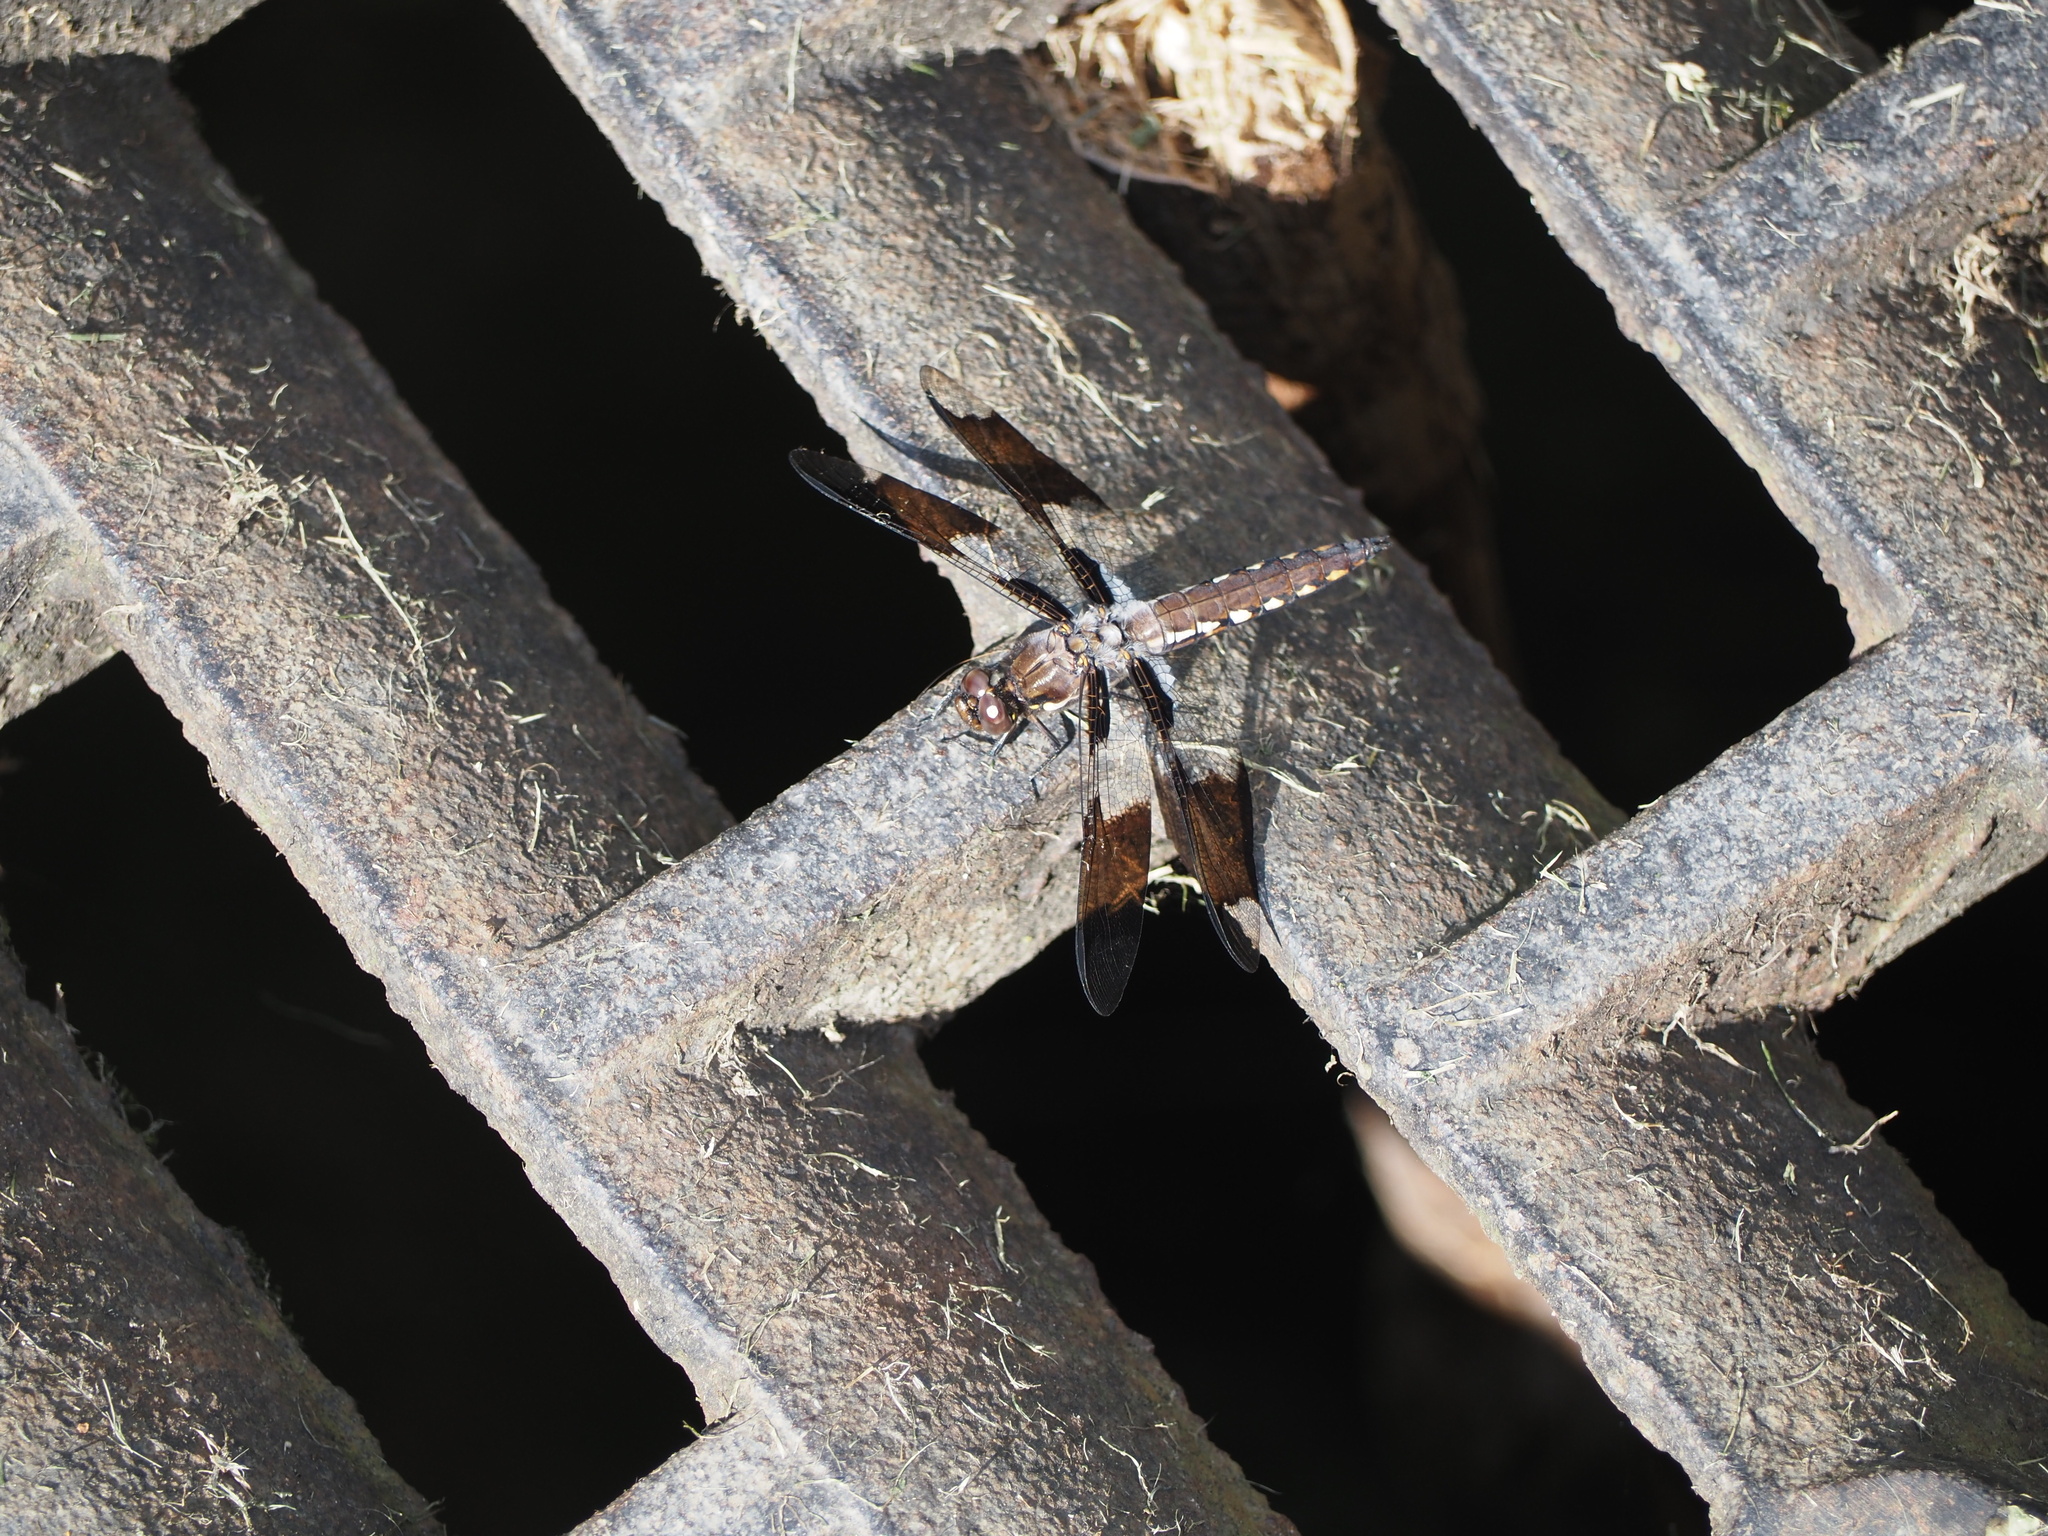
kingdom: Animalia
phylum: Arthropoda
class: Insecta
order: Odonata
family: Libellulidae
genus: Plathemis
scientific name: Plathemis lydia
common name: Common whitetail
